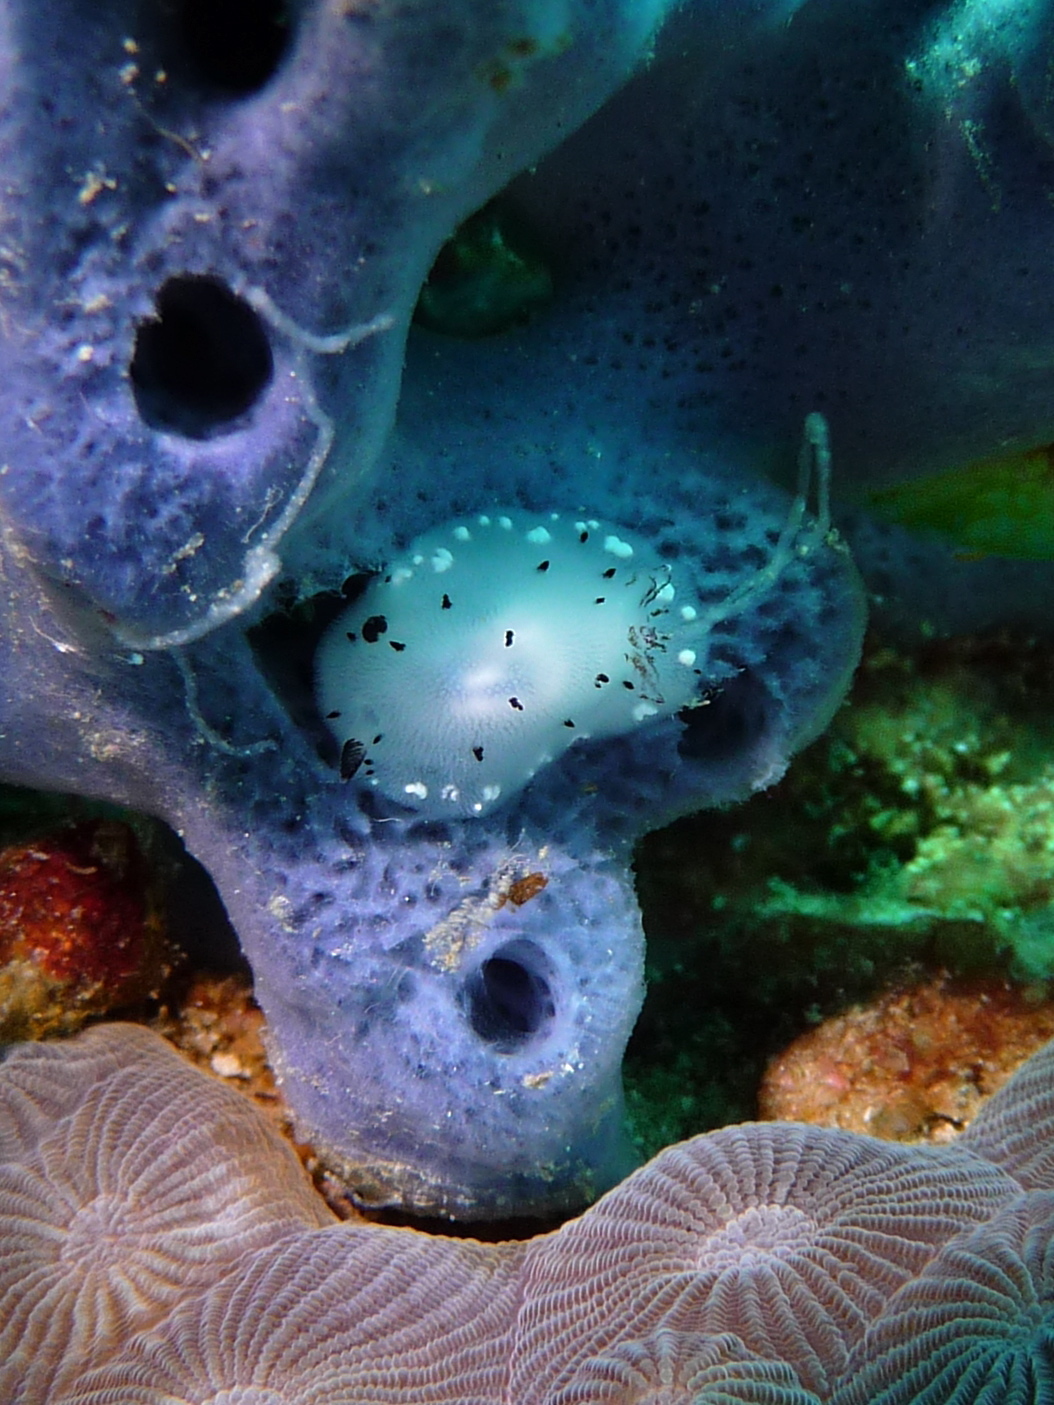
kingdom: Animalia
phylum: Mollusca
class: Gastropoda
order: Nudibranchia
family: Discodorididae
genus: Jorunna
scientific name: Jorunna funebris
